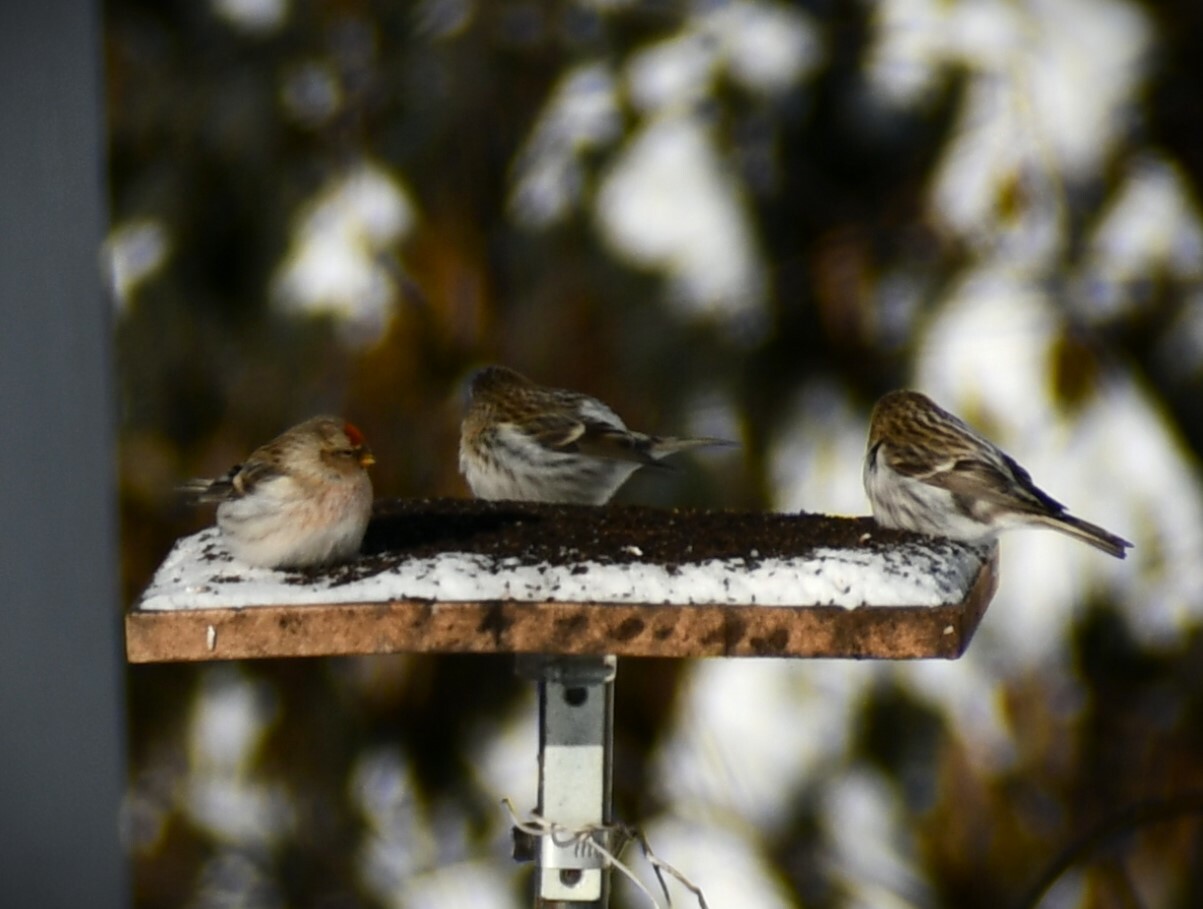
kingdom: Animalia
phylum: Chordata
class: Aves
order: Passeriformes
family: Fringillidae
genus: Acanthis
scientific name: Acanthis hornemanni
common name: Arctic redpoll
